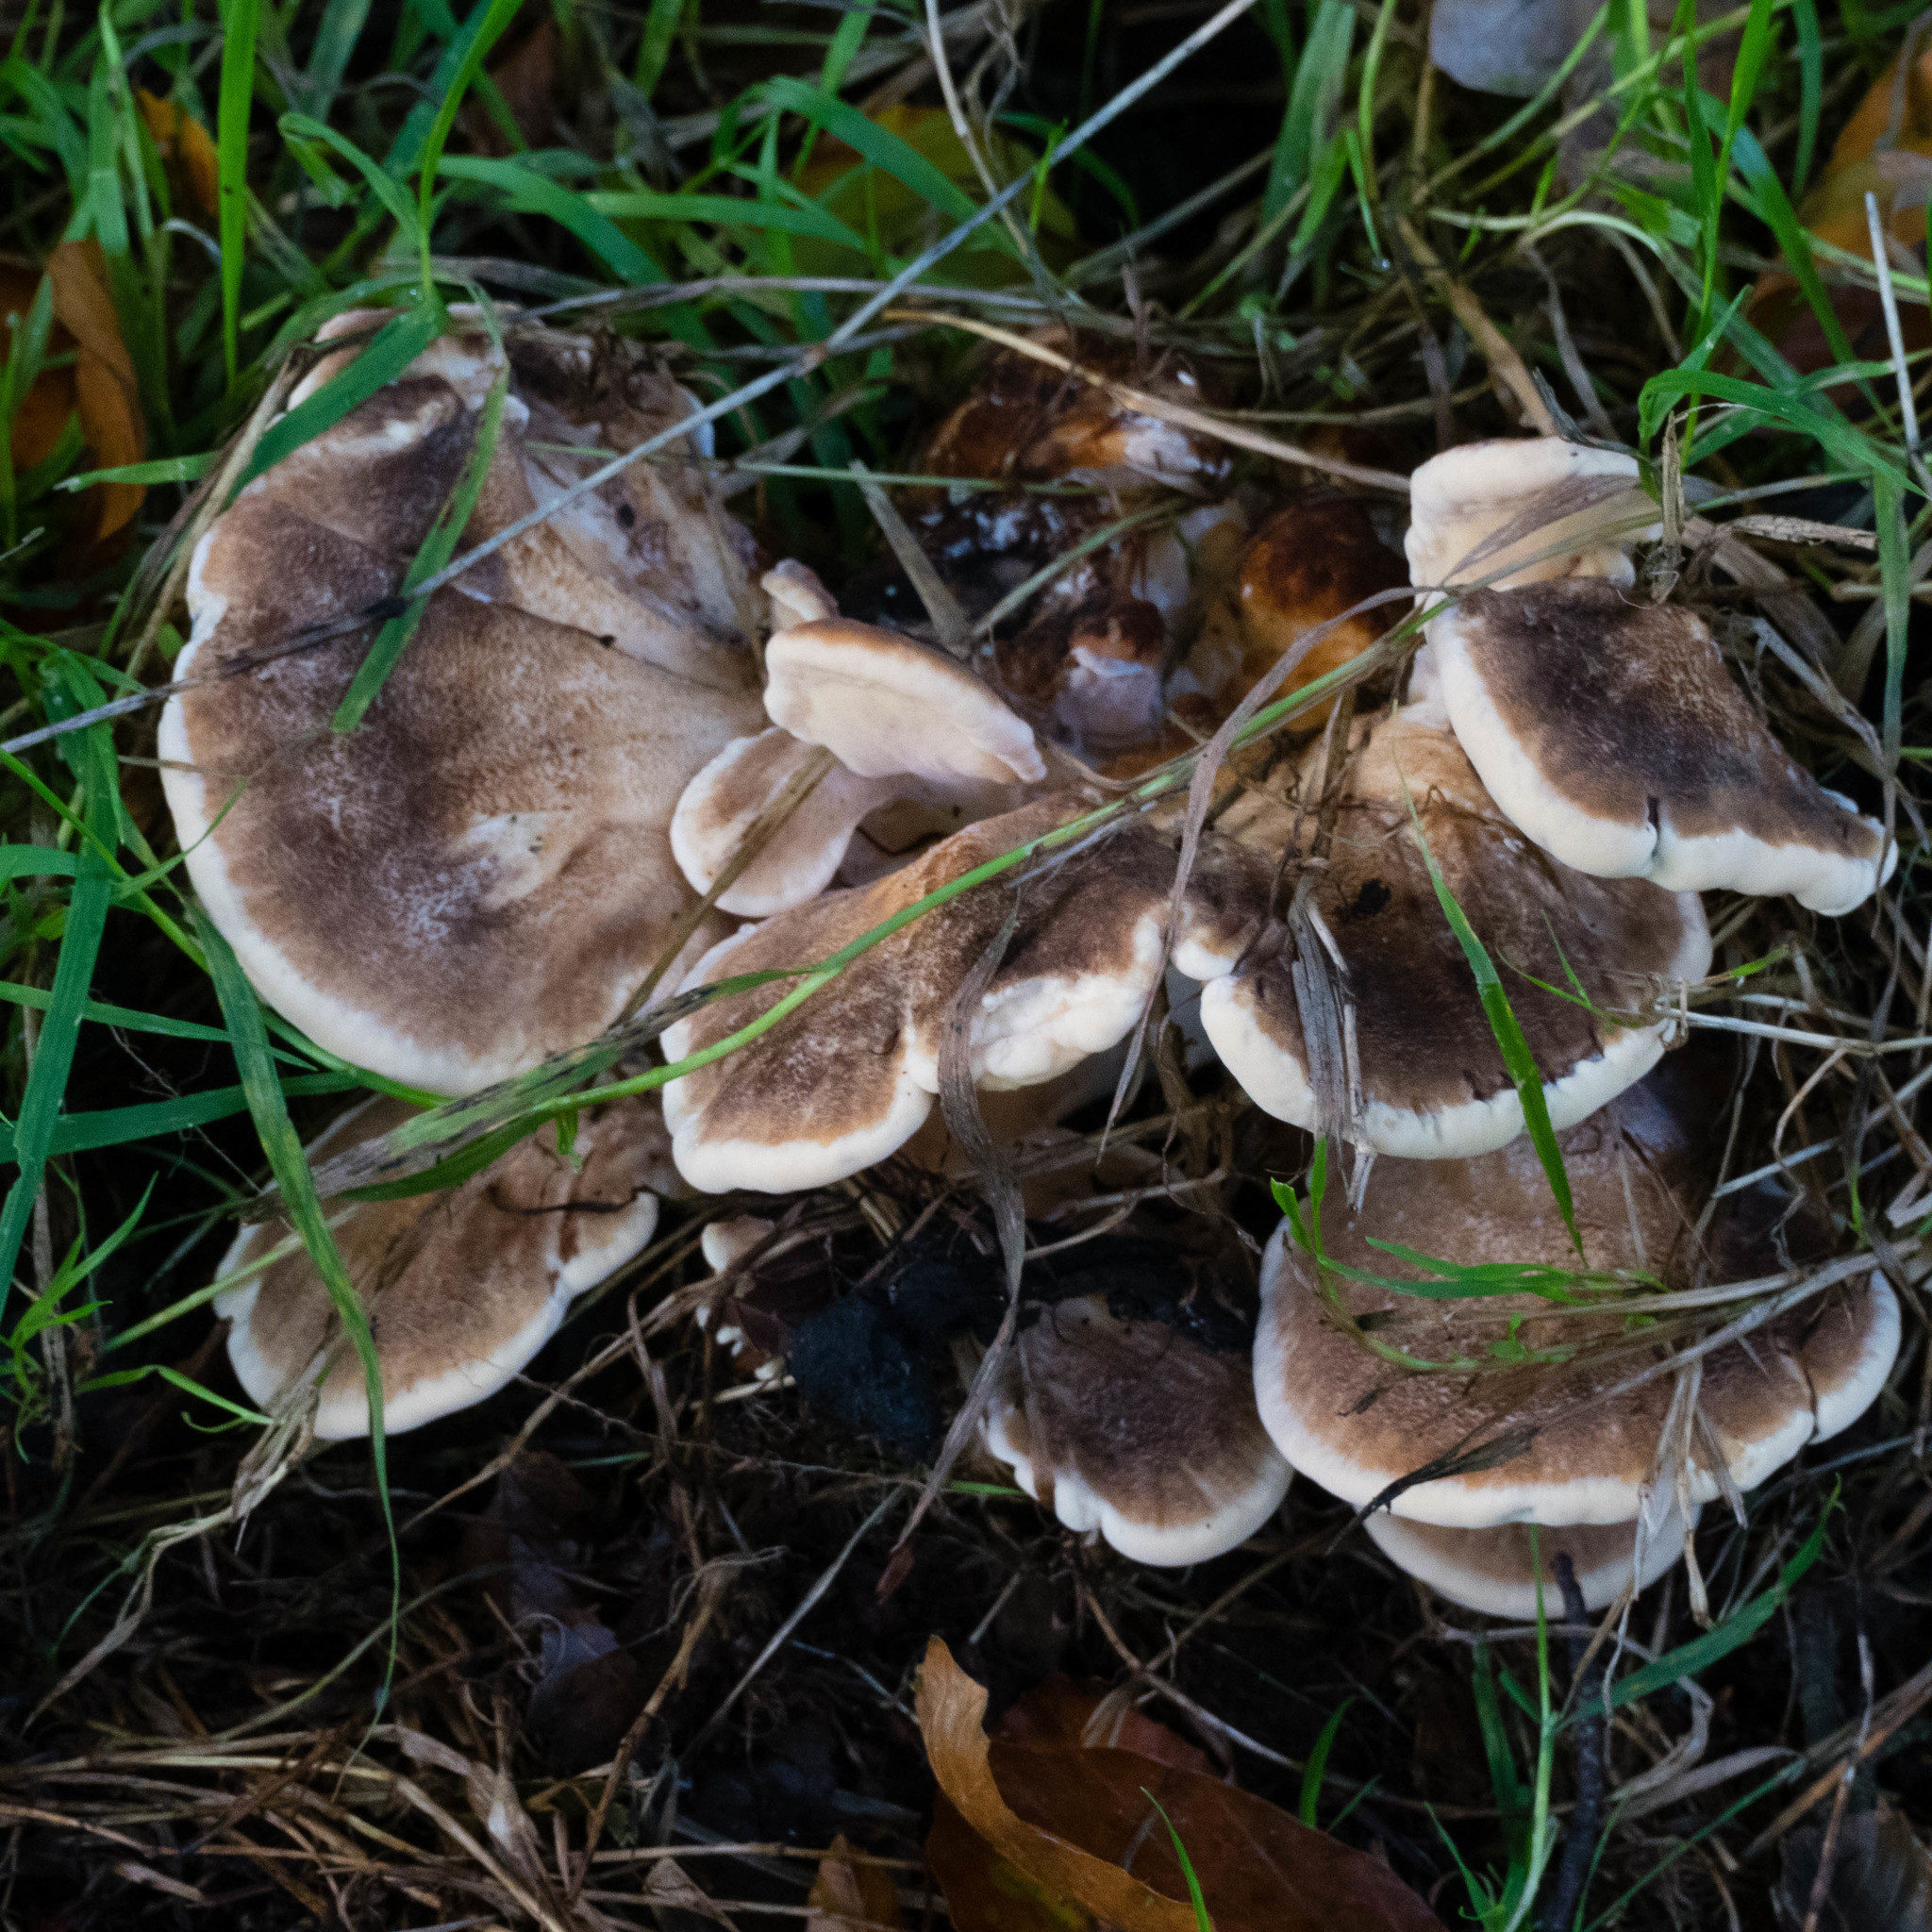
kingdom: Fungi
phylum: Basidiomycota
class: Agaricomycetes
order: Polyporales
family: Meripilaceae
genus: Meripilus
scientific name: Meripilus giganteus
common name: Giant polypore
